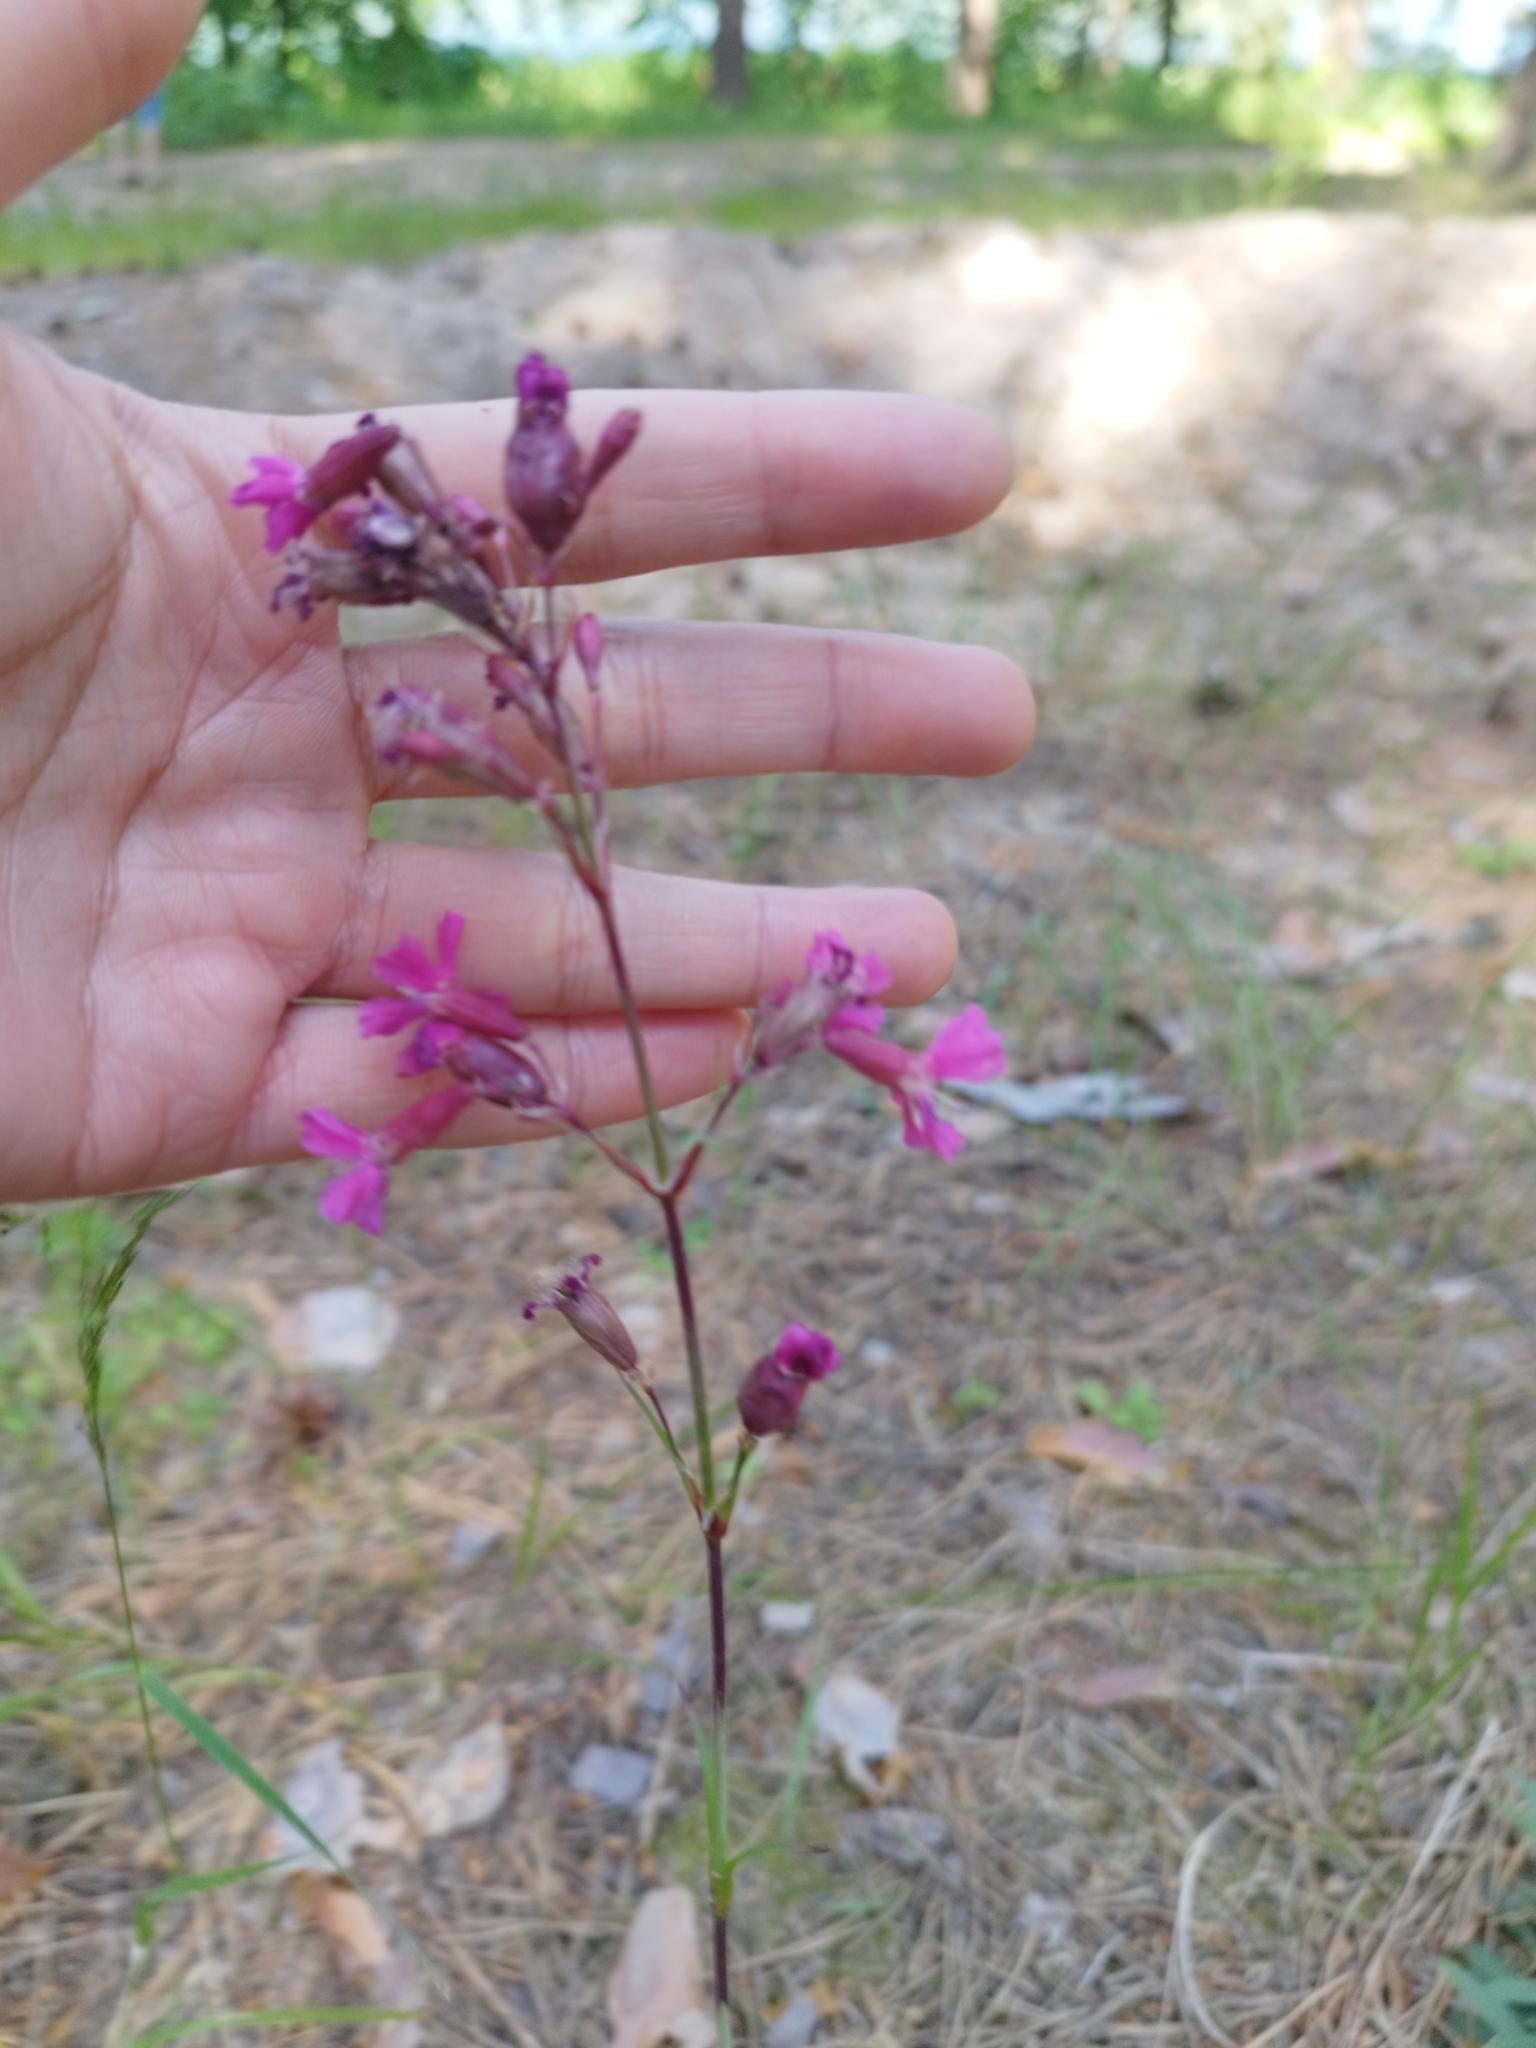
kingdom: Plantae
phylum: Tracheophyta
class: Magnoliopsida
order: Caryophyllales
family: Caryophyllaceae
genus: Viscaria
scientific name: Viscaria vulgaris
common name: Clammy campion
